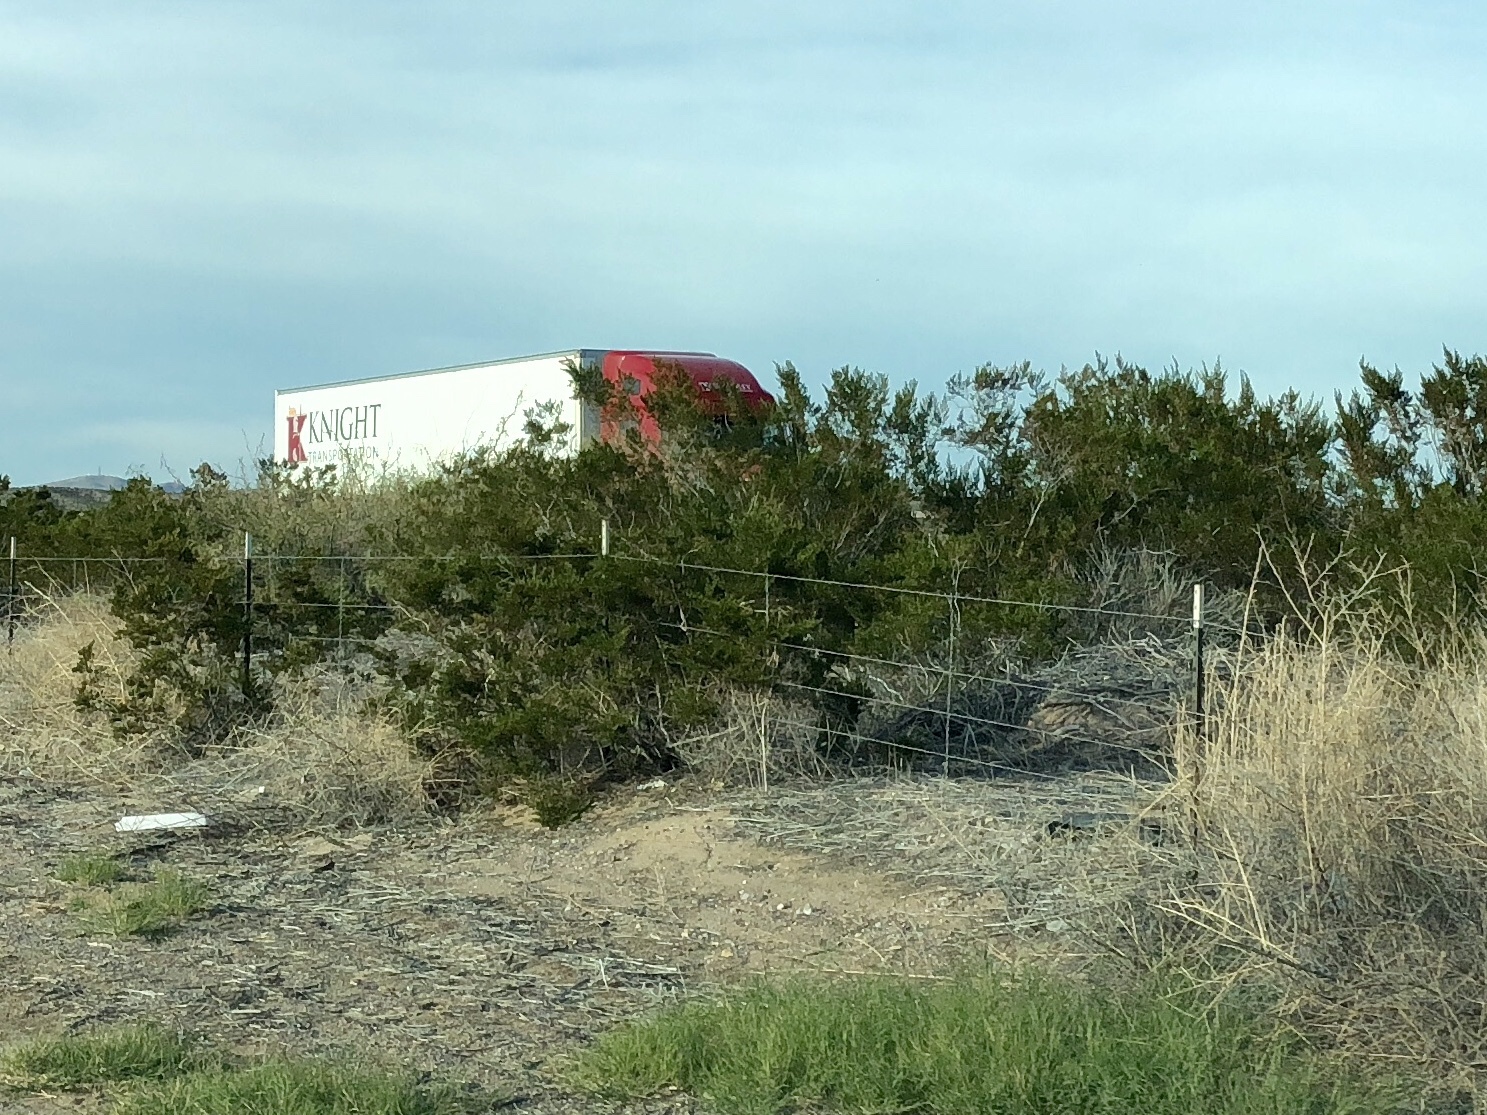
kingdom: Plantae
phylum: Tracheophyta
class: Magnoliopsida
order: Zygophyllales
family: Zygophyllaceae
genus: Larrea
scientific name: Larrea tridentata
